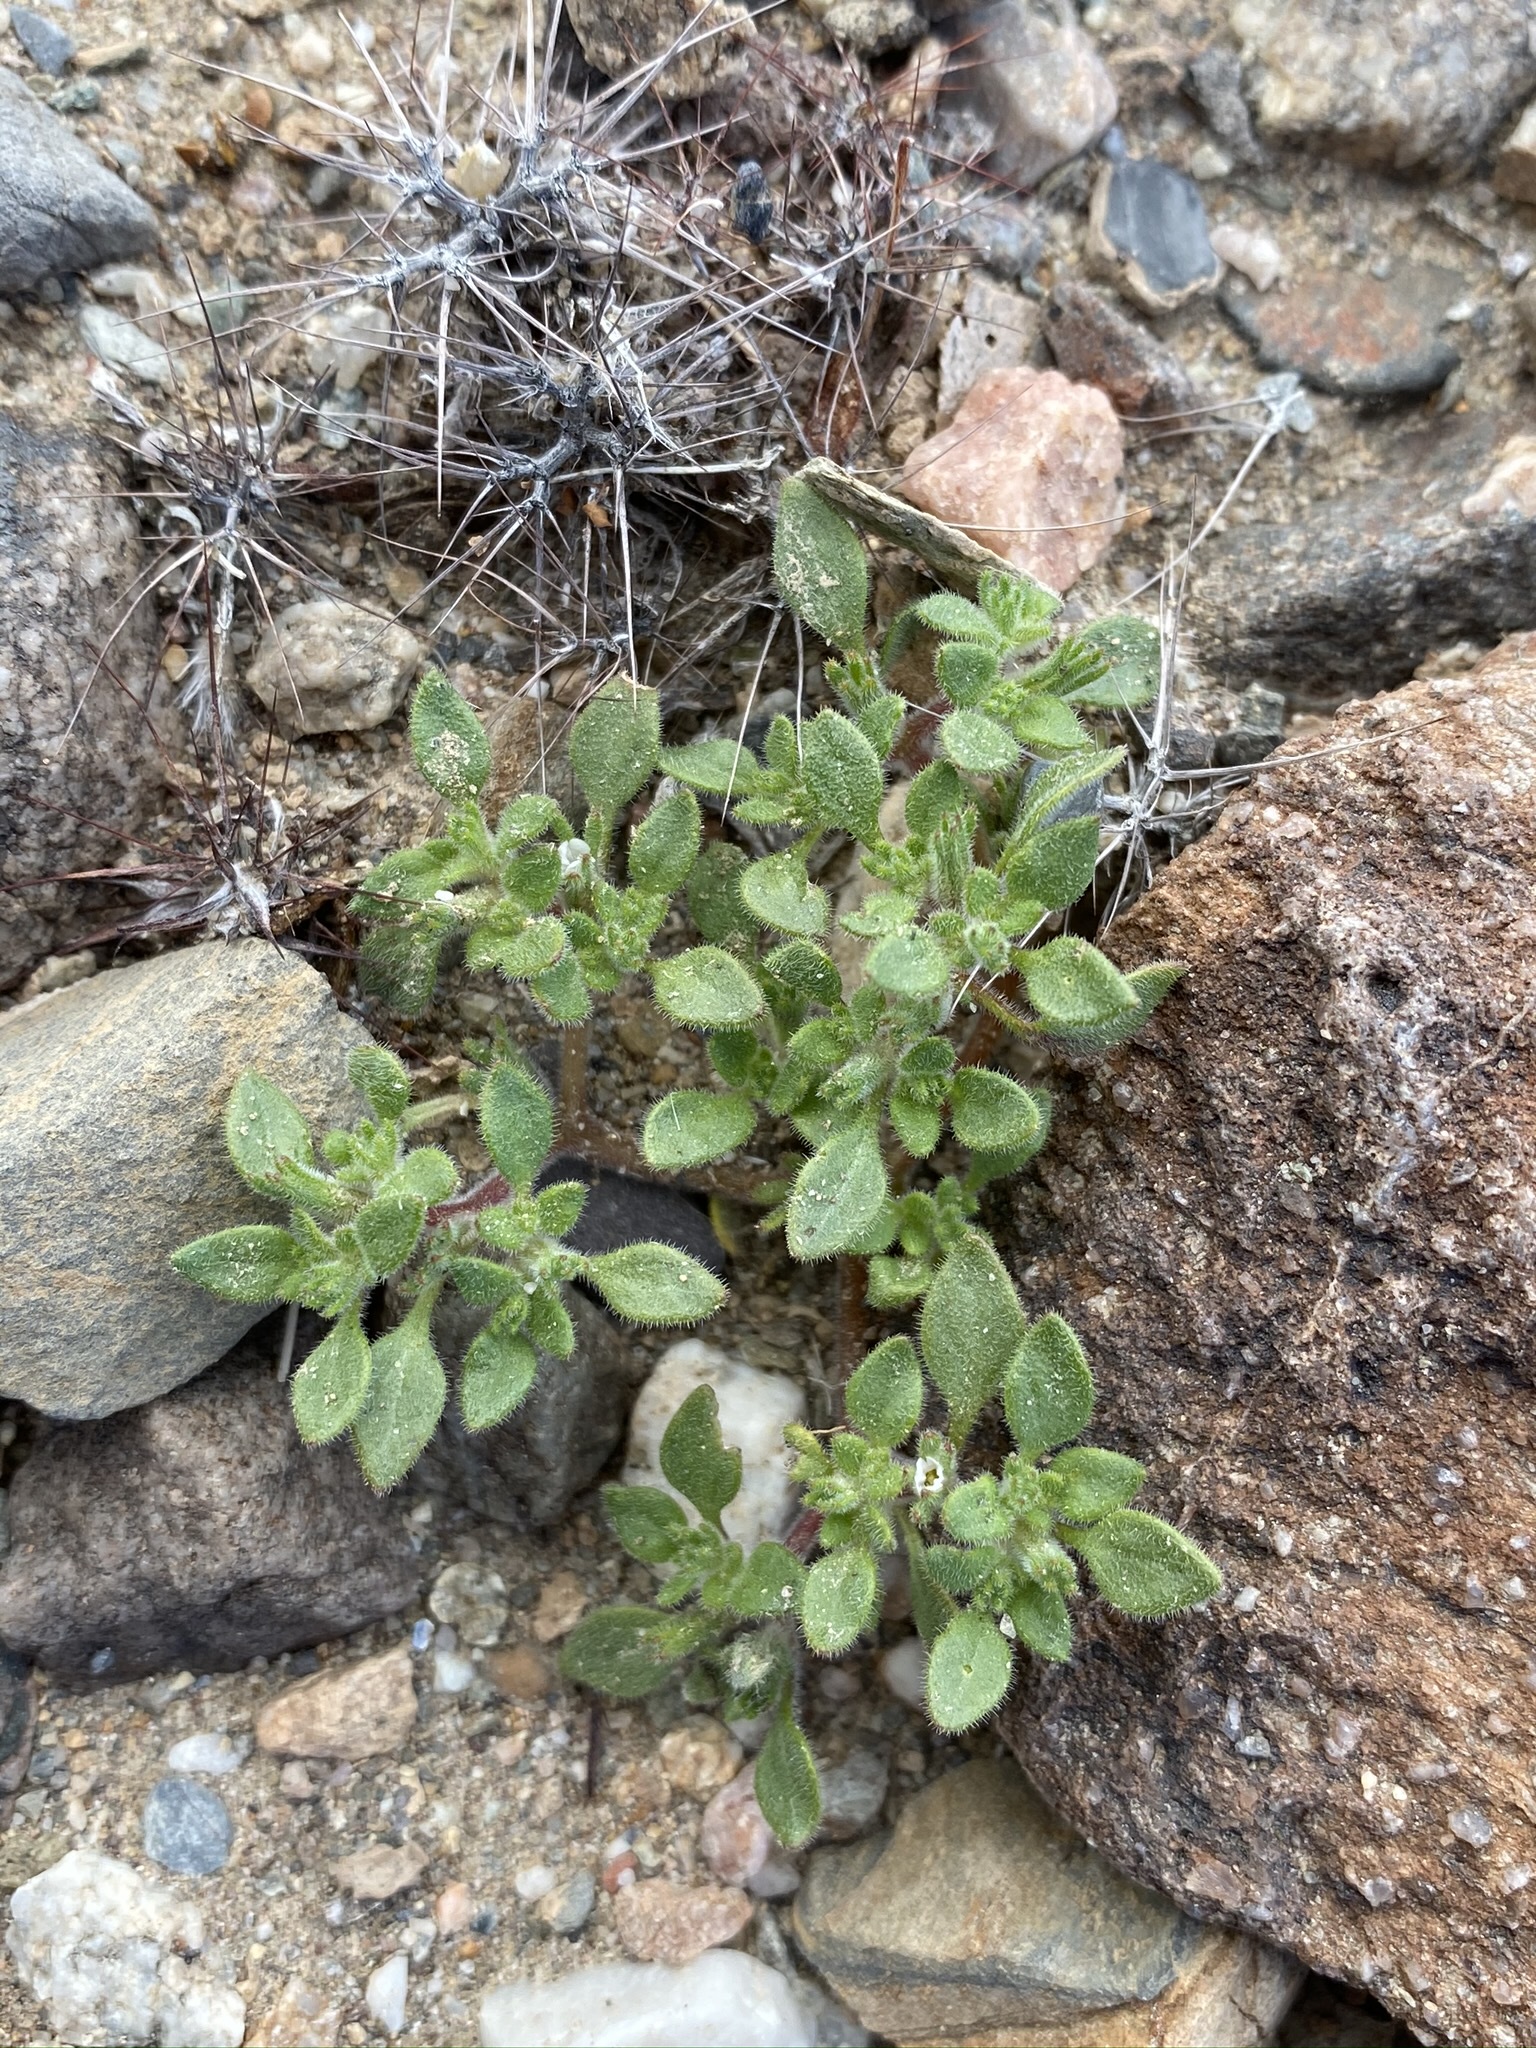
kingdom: Plantae
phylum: Tracheophyta
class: Magnoliopsida
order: Boraginales
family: Namaceae
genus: Nama
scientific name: Nama pusilla
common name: Eggleaf nama
